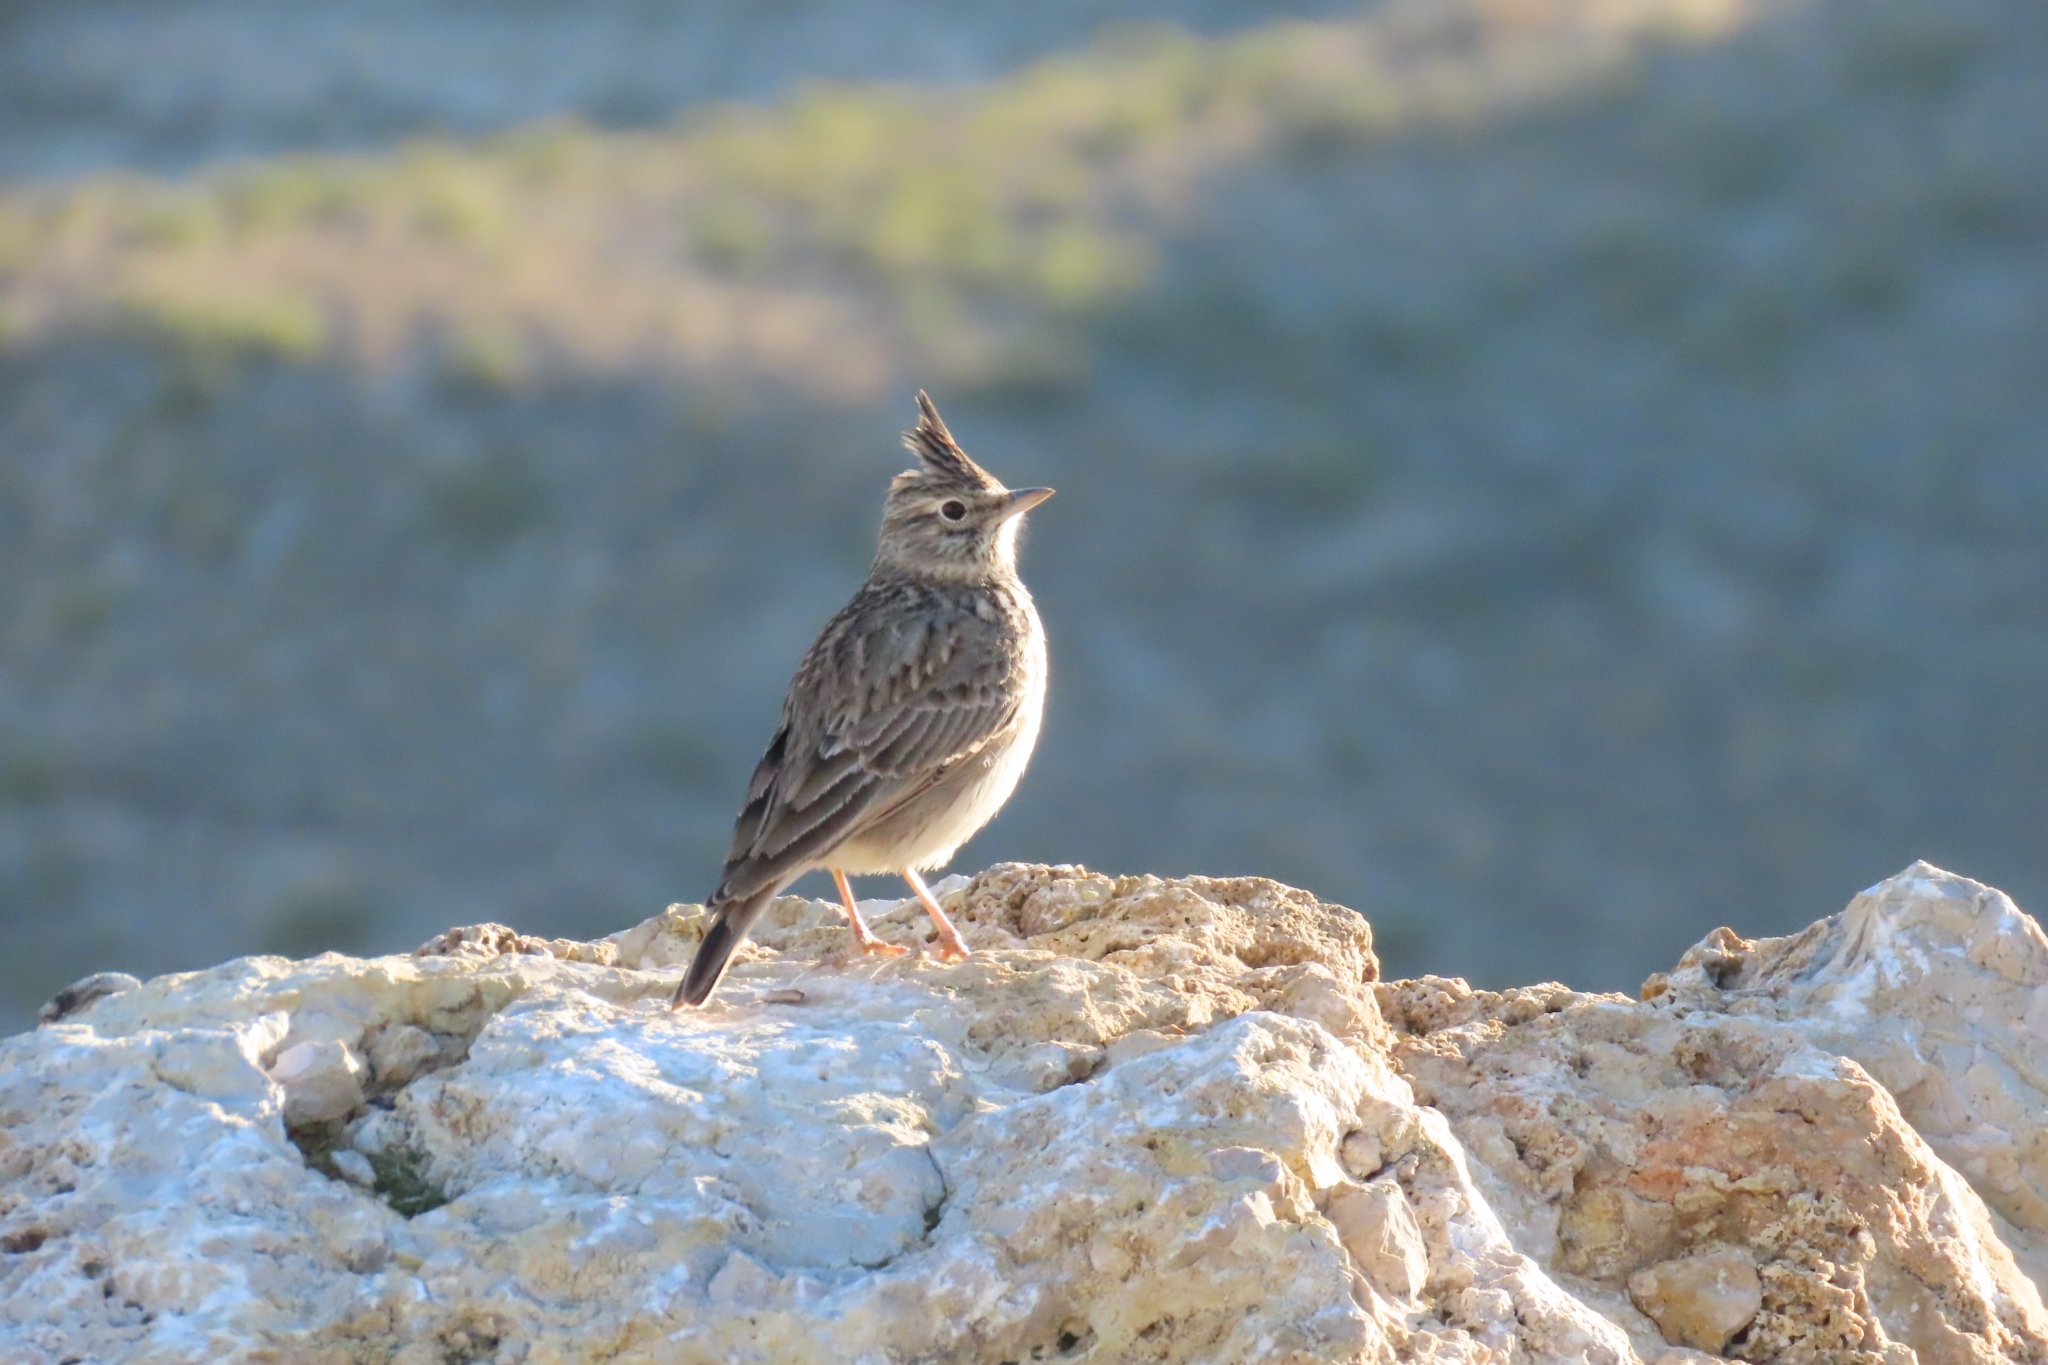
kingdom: Animalia
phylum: Chordata
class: Aves
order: Passeriformes
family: Alaudidae
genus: Galerida
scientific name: Galerida cristata
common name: Crested lark
